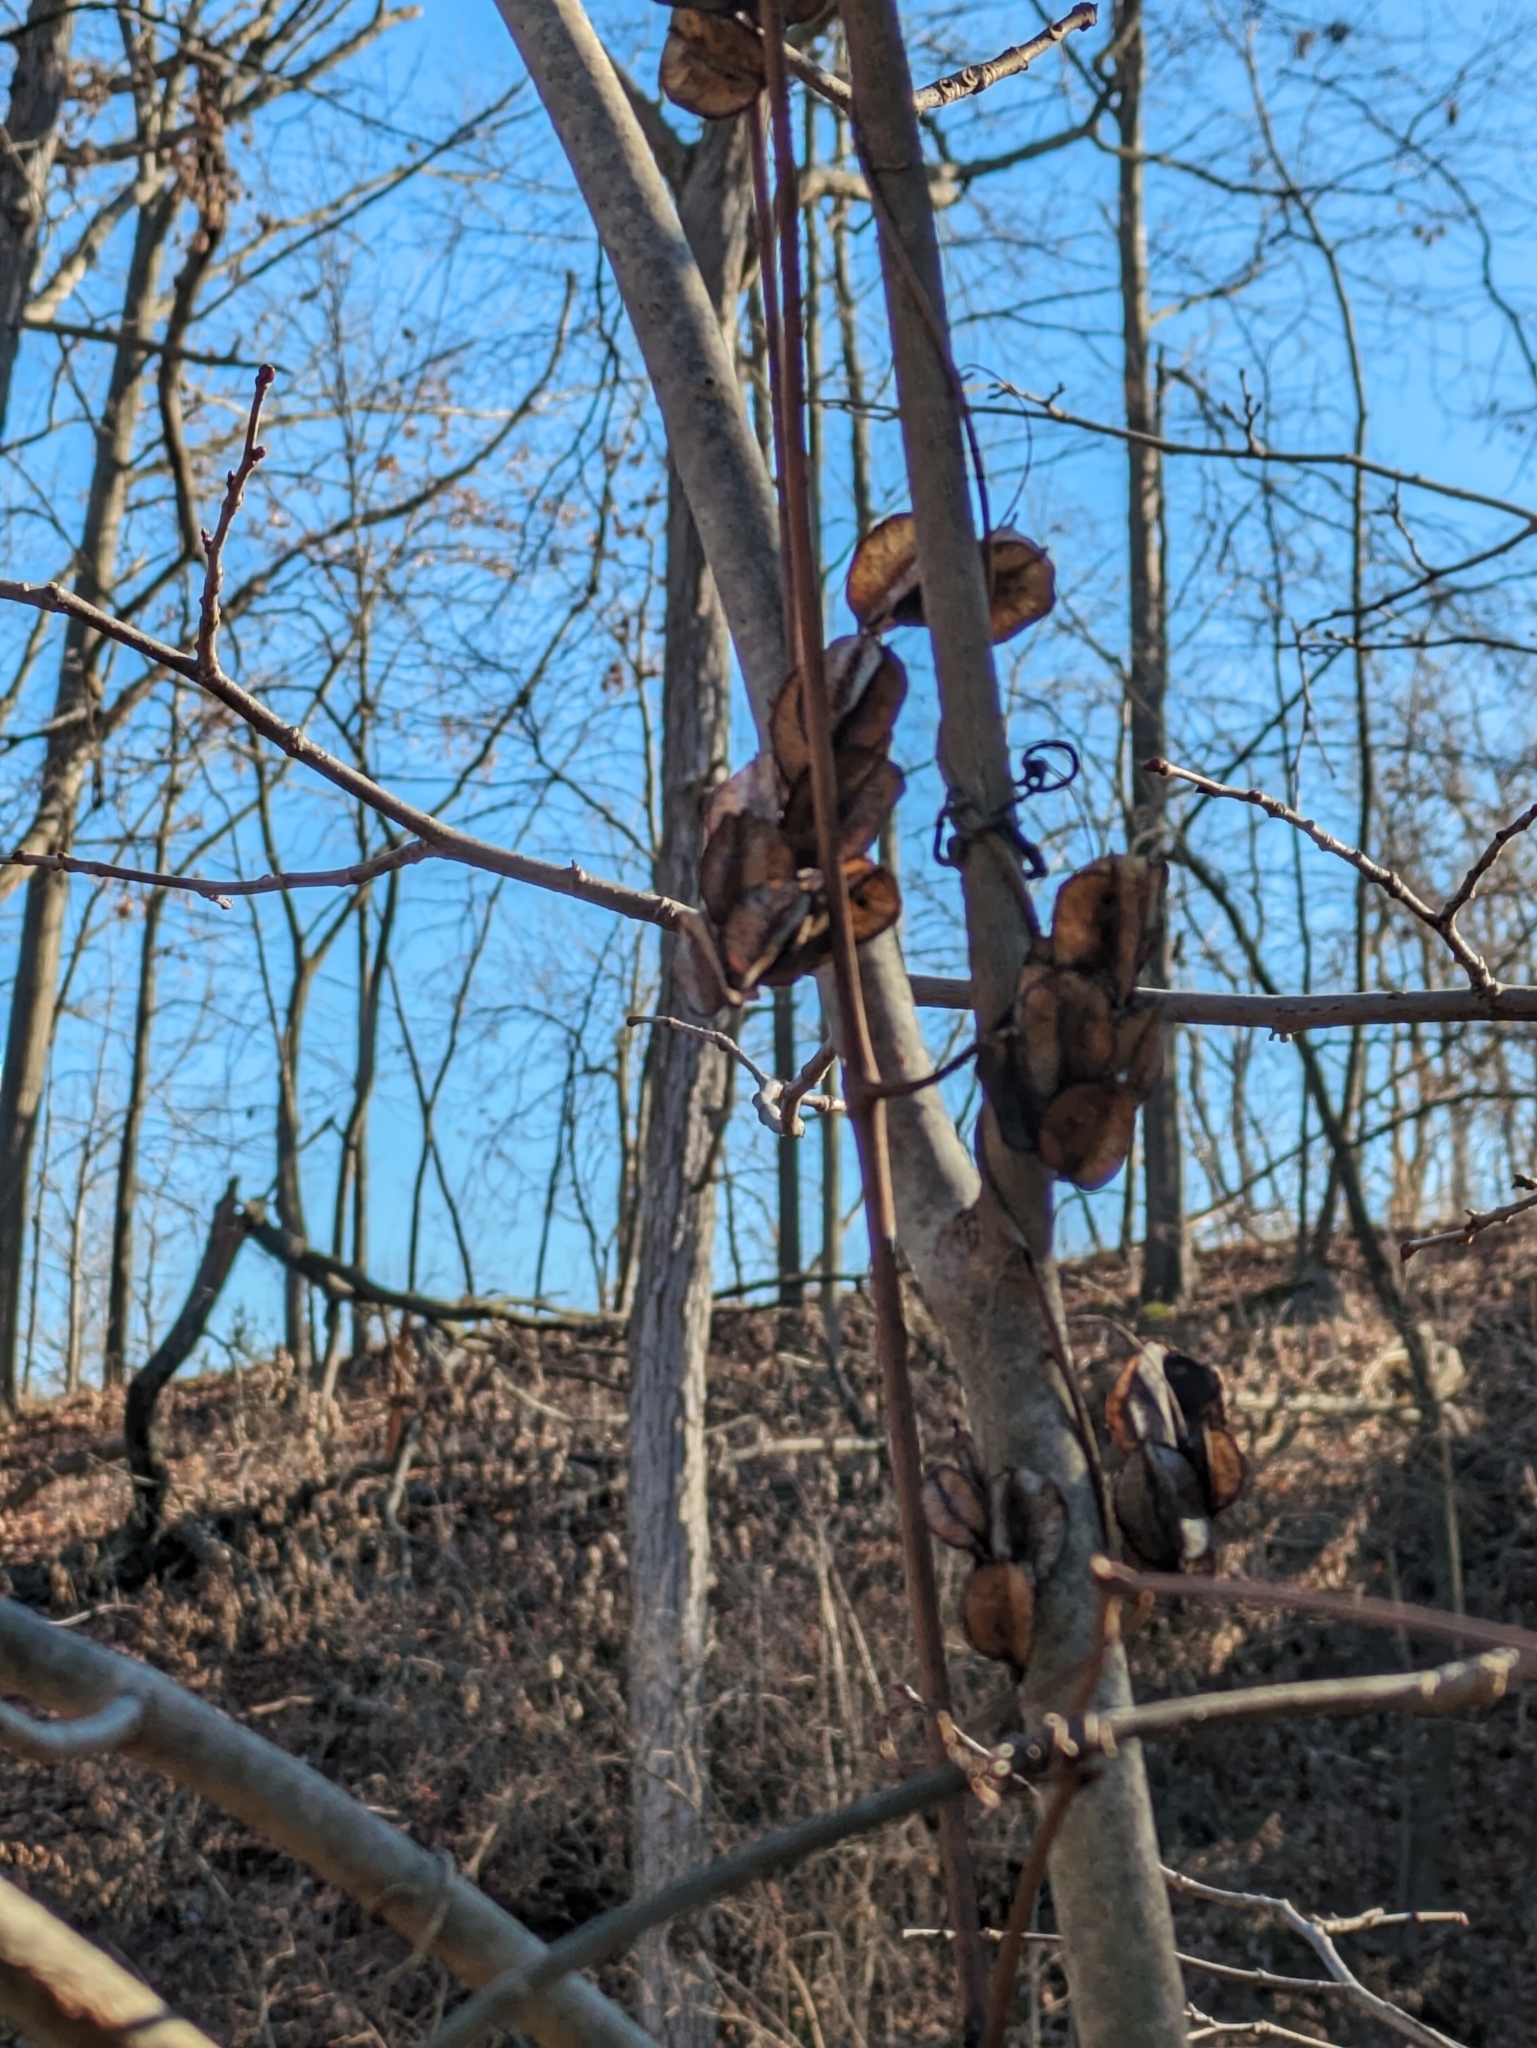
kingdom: Plantae
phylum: Tracheophyta
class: Liliopsida
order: Dioscoreales
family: Dioscoreaceae
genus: Dioscorea
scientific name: Dioscorea villosa
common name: Wild yam
